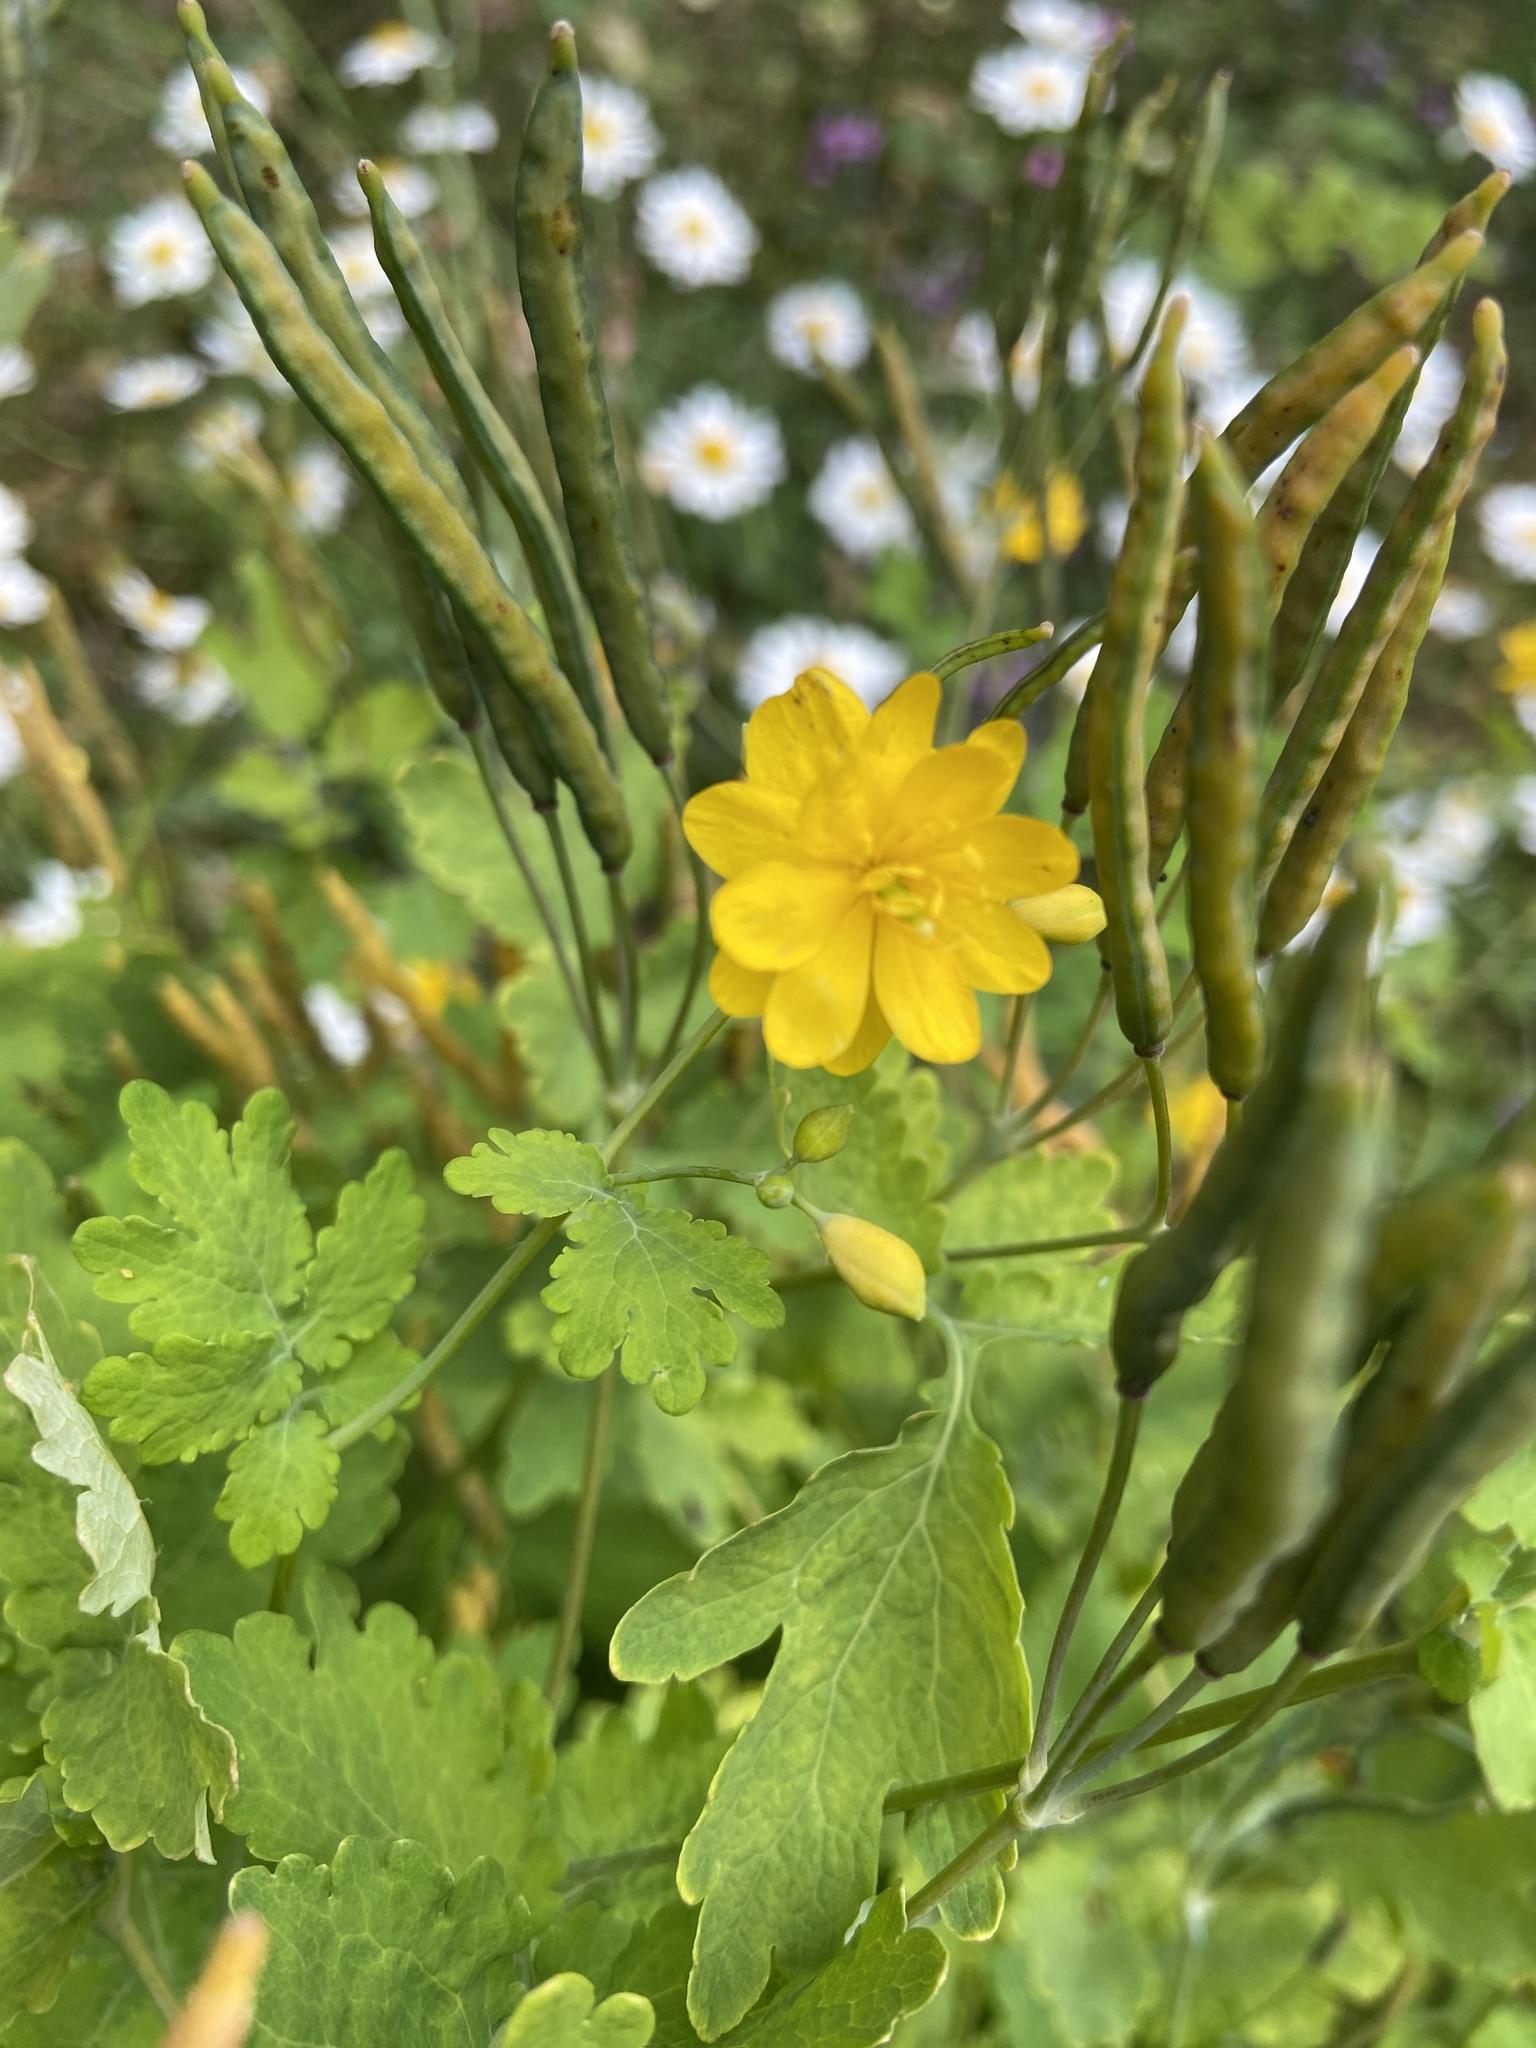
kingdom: Plantae
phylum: Tracheophyta
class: Magnoliopsida
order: Ranunculales
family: Papaveraceae
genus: Chelidonium
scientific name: Chelidonium majus
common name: Greater celandine
